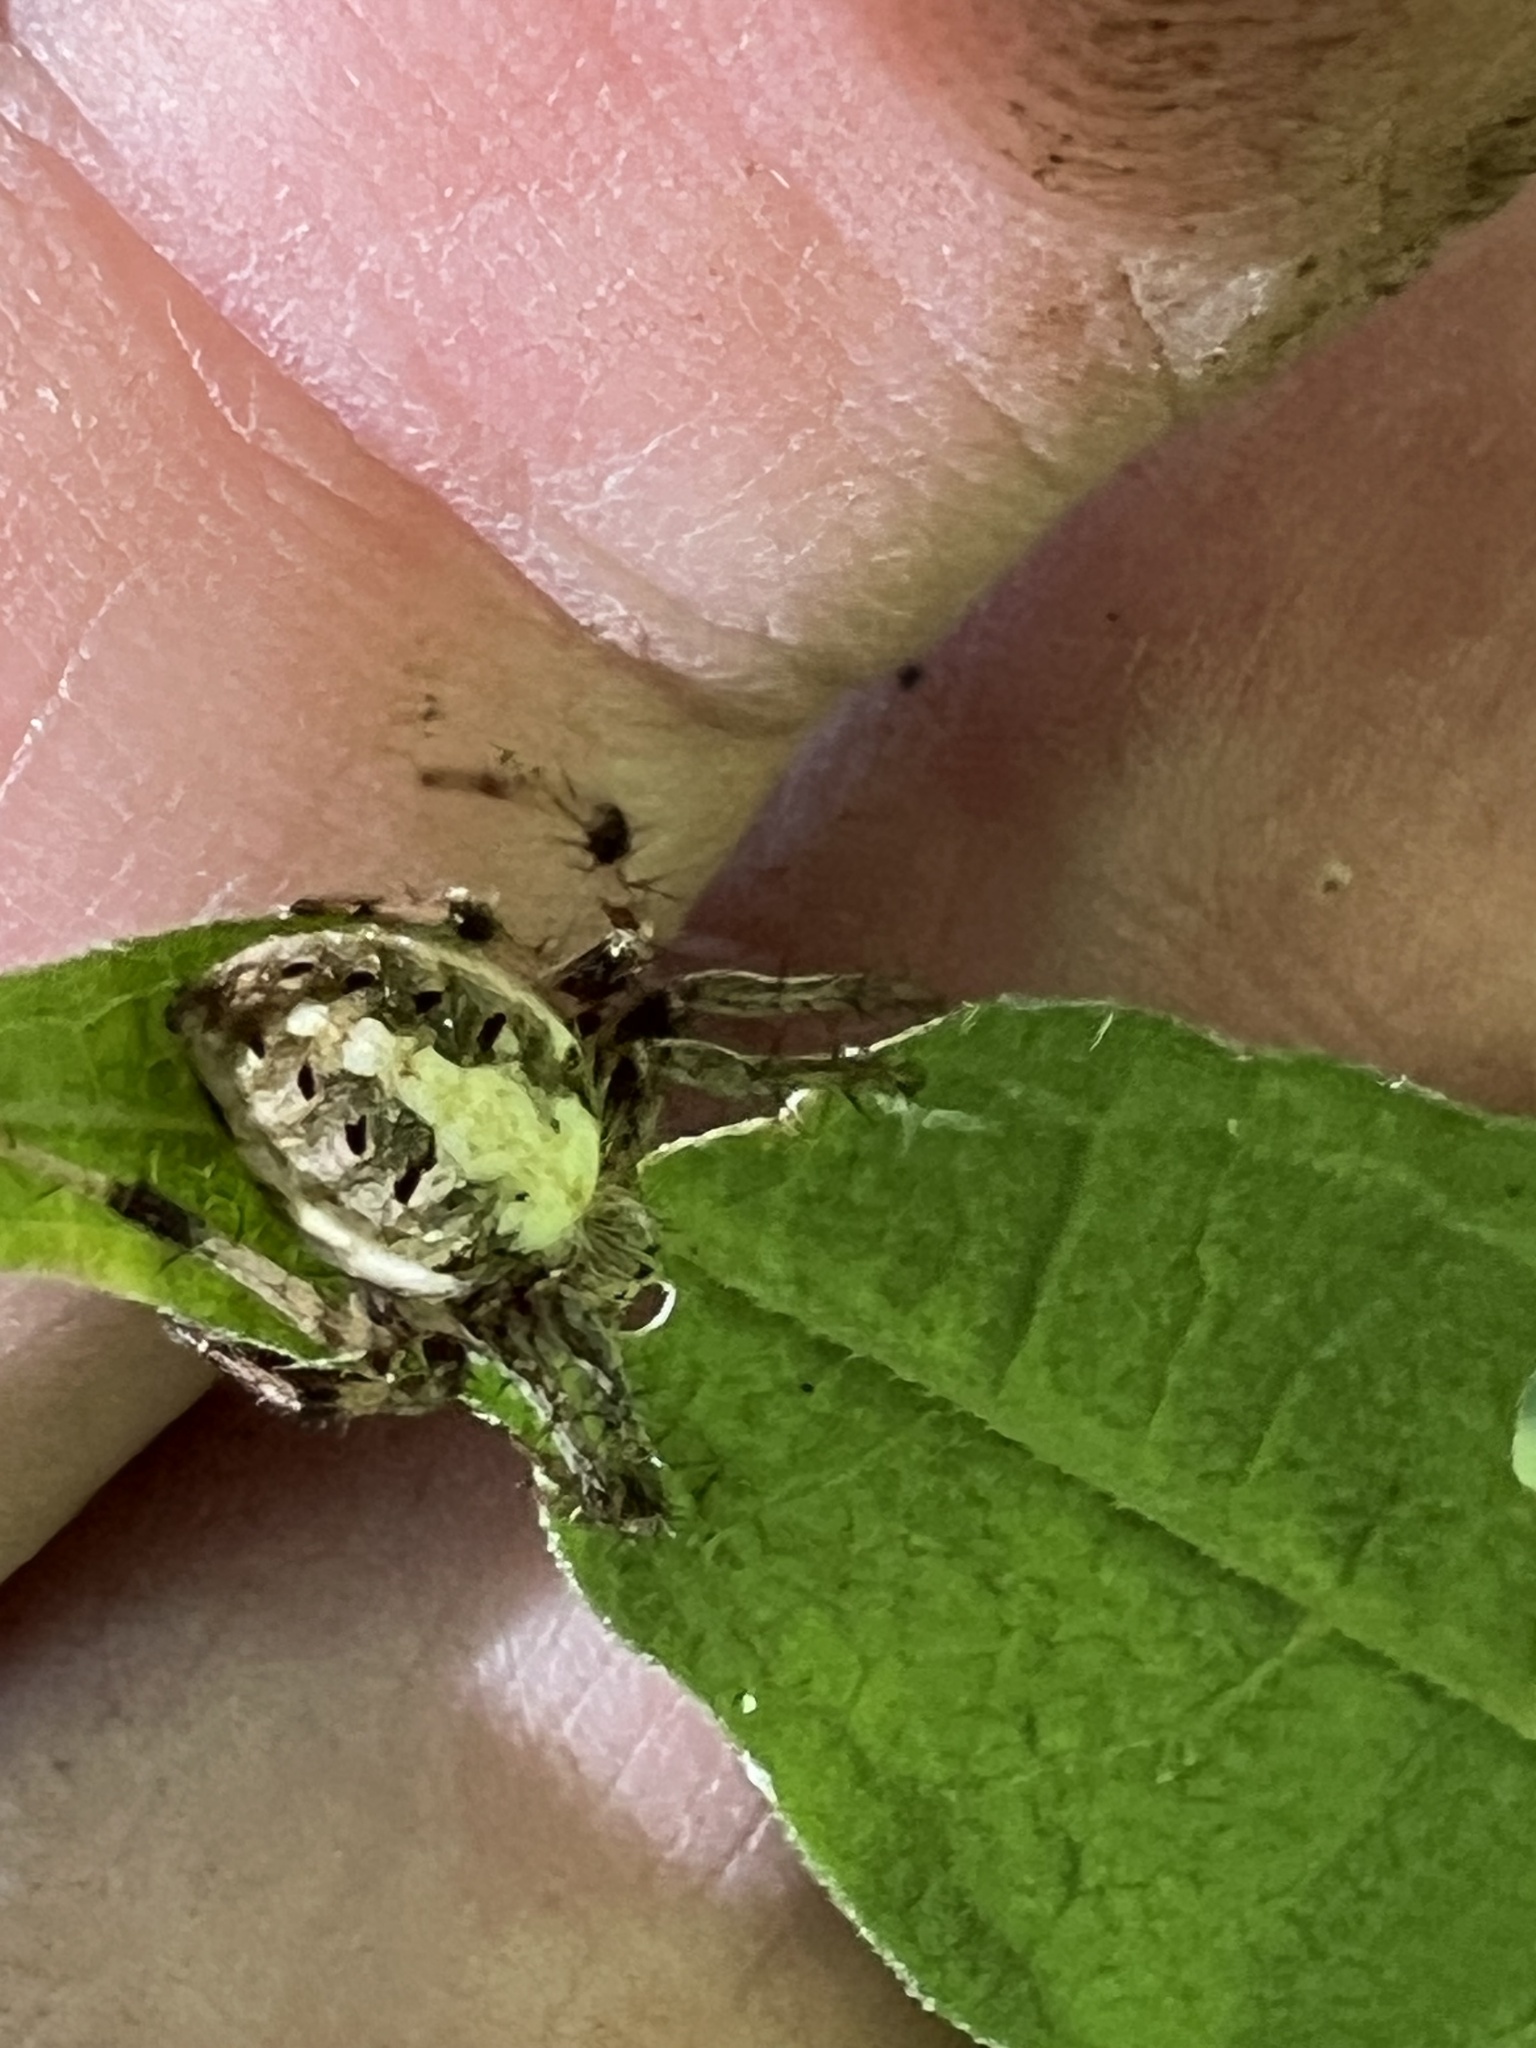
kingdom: Animalia
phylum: Arthropoda
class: Arachnida
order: Araneae
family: Araneidae
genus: Neoscona
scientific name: Neoscona arabesca
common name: Orb weavers
